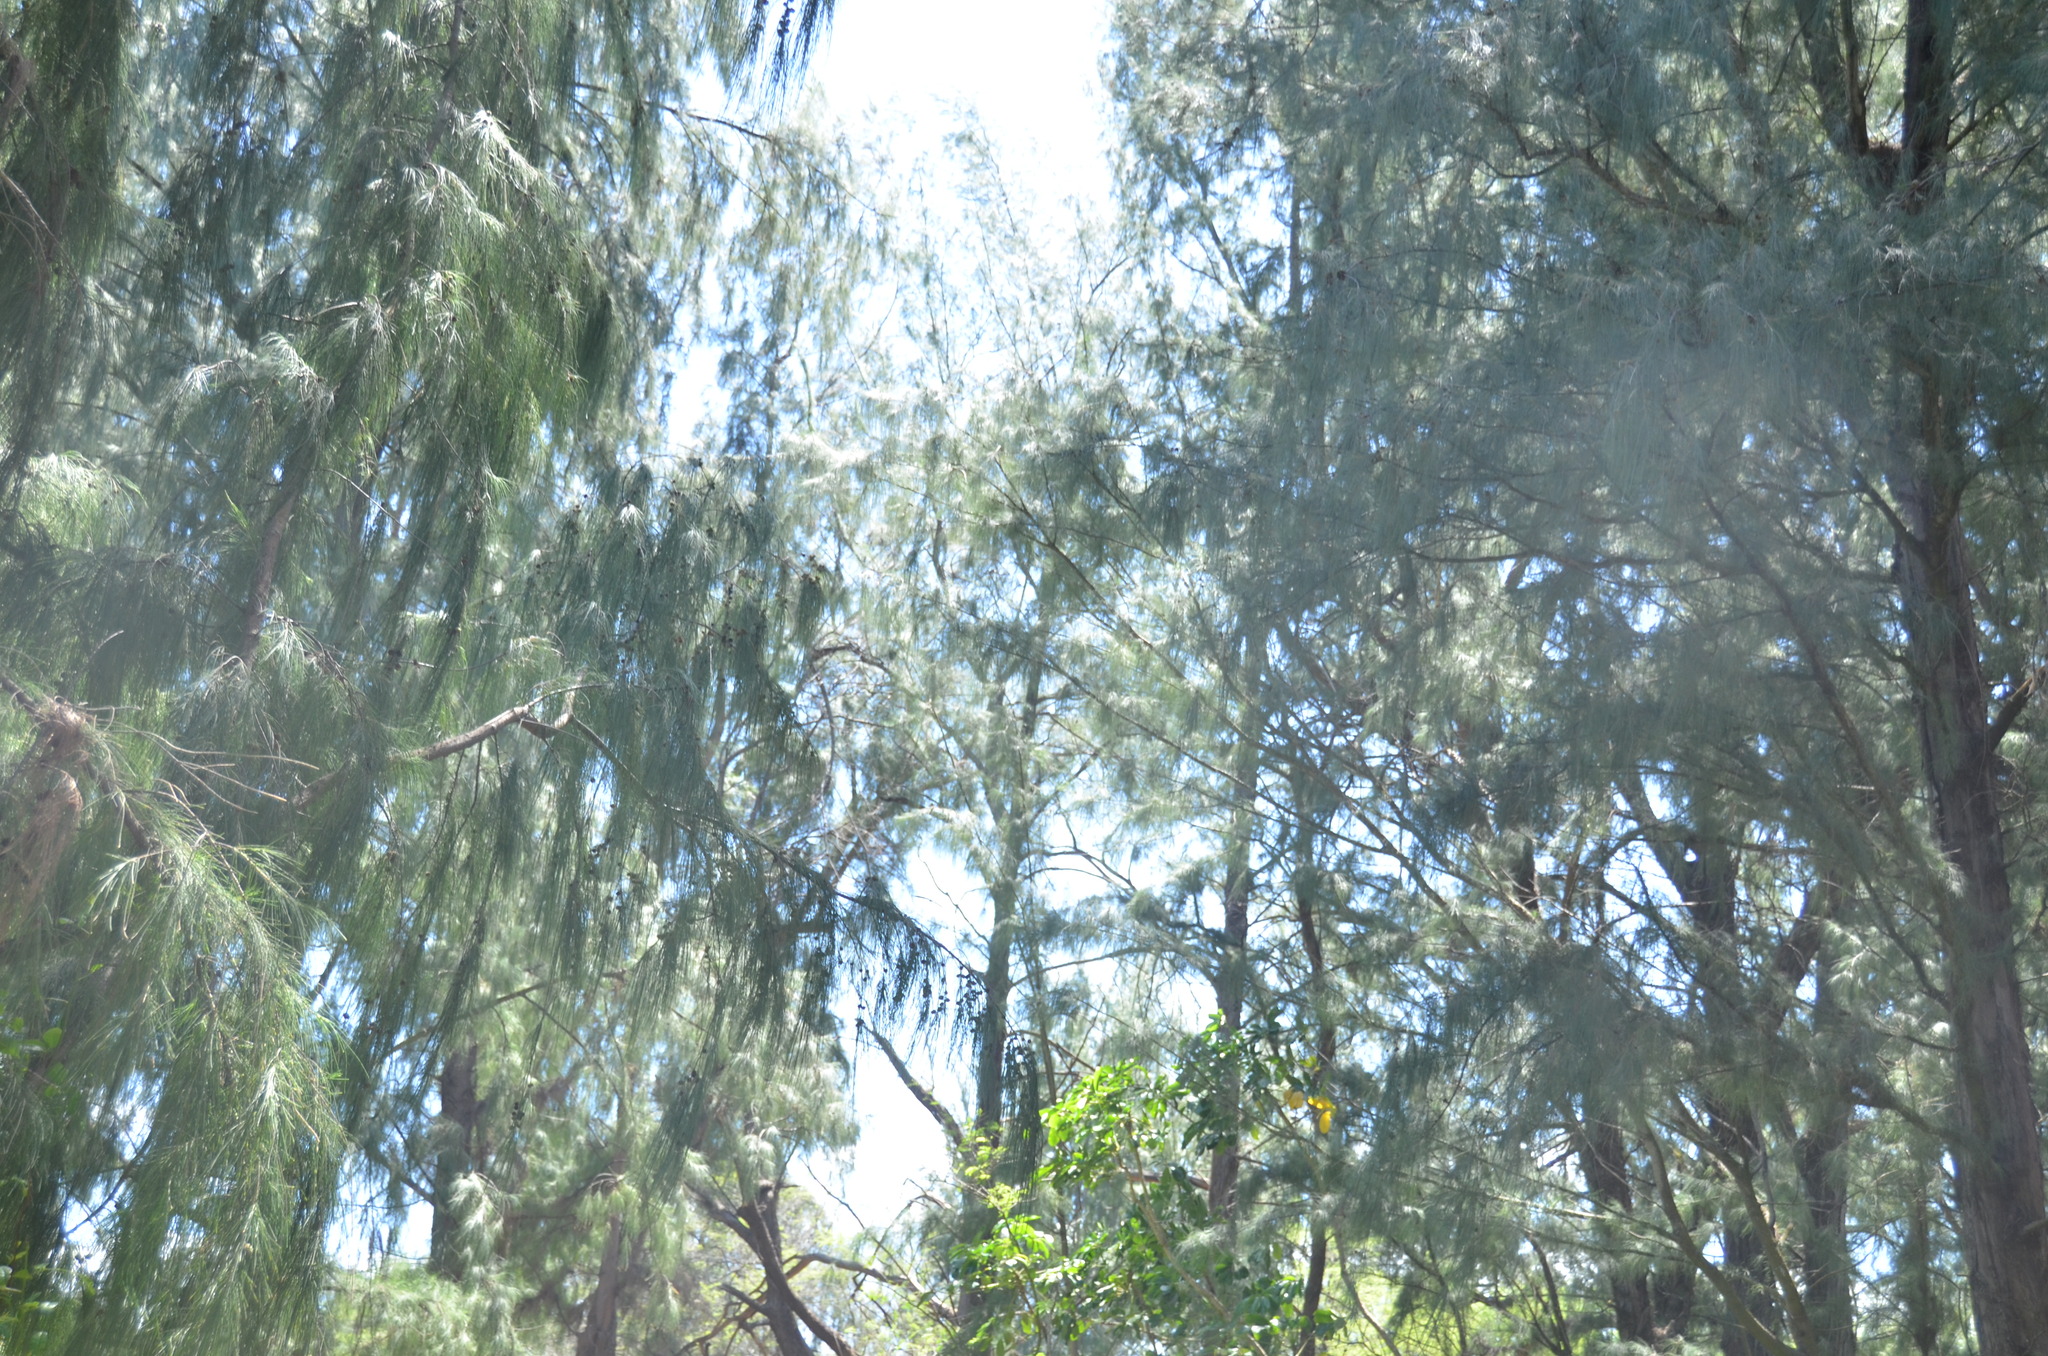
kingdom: Plantae
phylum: Tracheophyta
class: Magnoliopsida
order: Fagales
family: Casuarinaceae
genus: Casuarina
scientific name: Casuarina equisetifolia
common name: Beach sheoak
